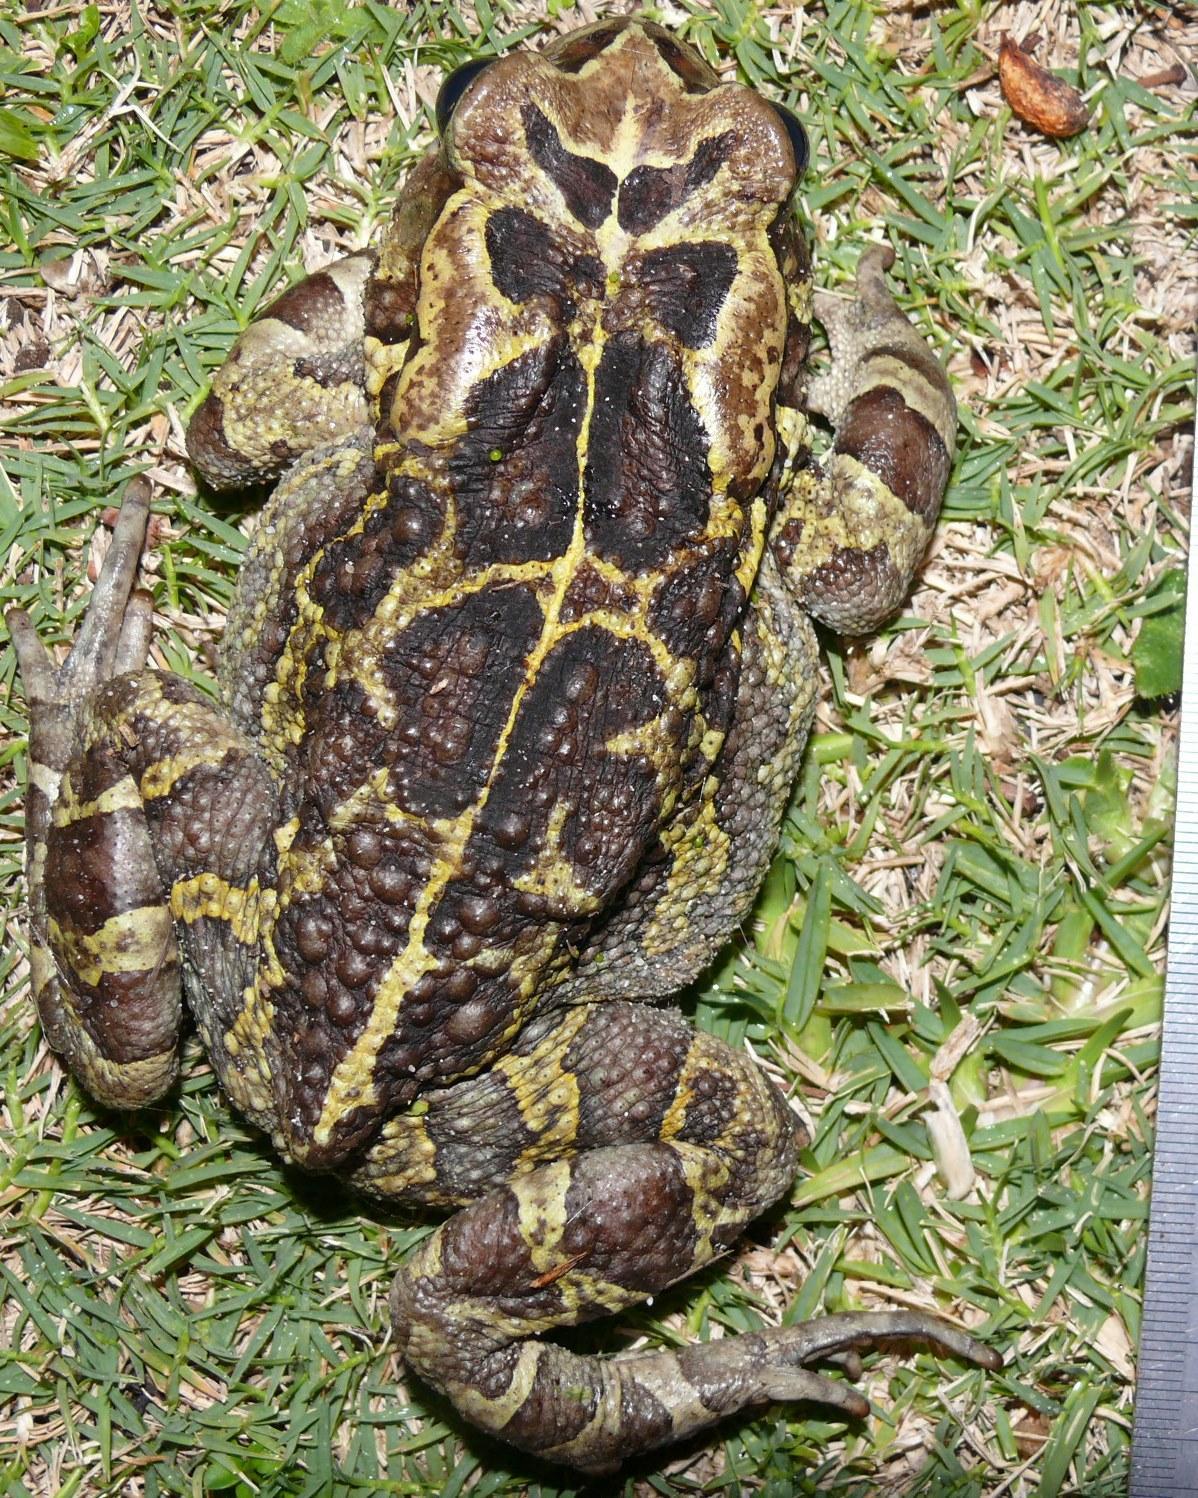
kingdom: Animalia
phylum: Chordata
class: Amphibia
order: Anura
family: Bufonidae
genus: Sclerophrys
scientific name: Sclerophrys pantherina
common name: Panther toad
